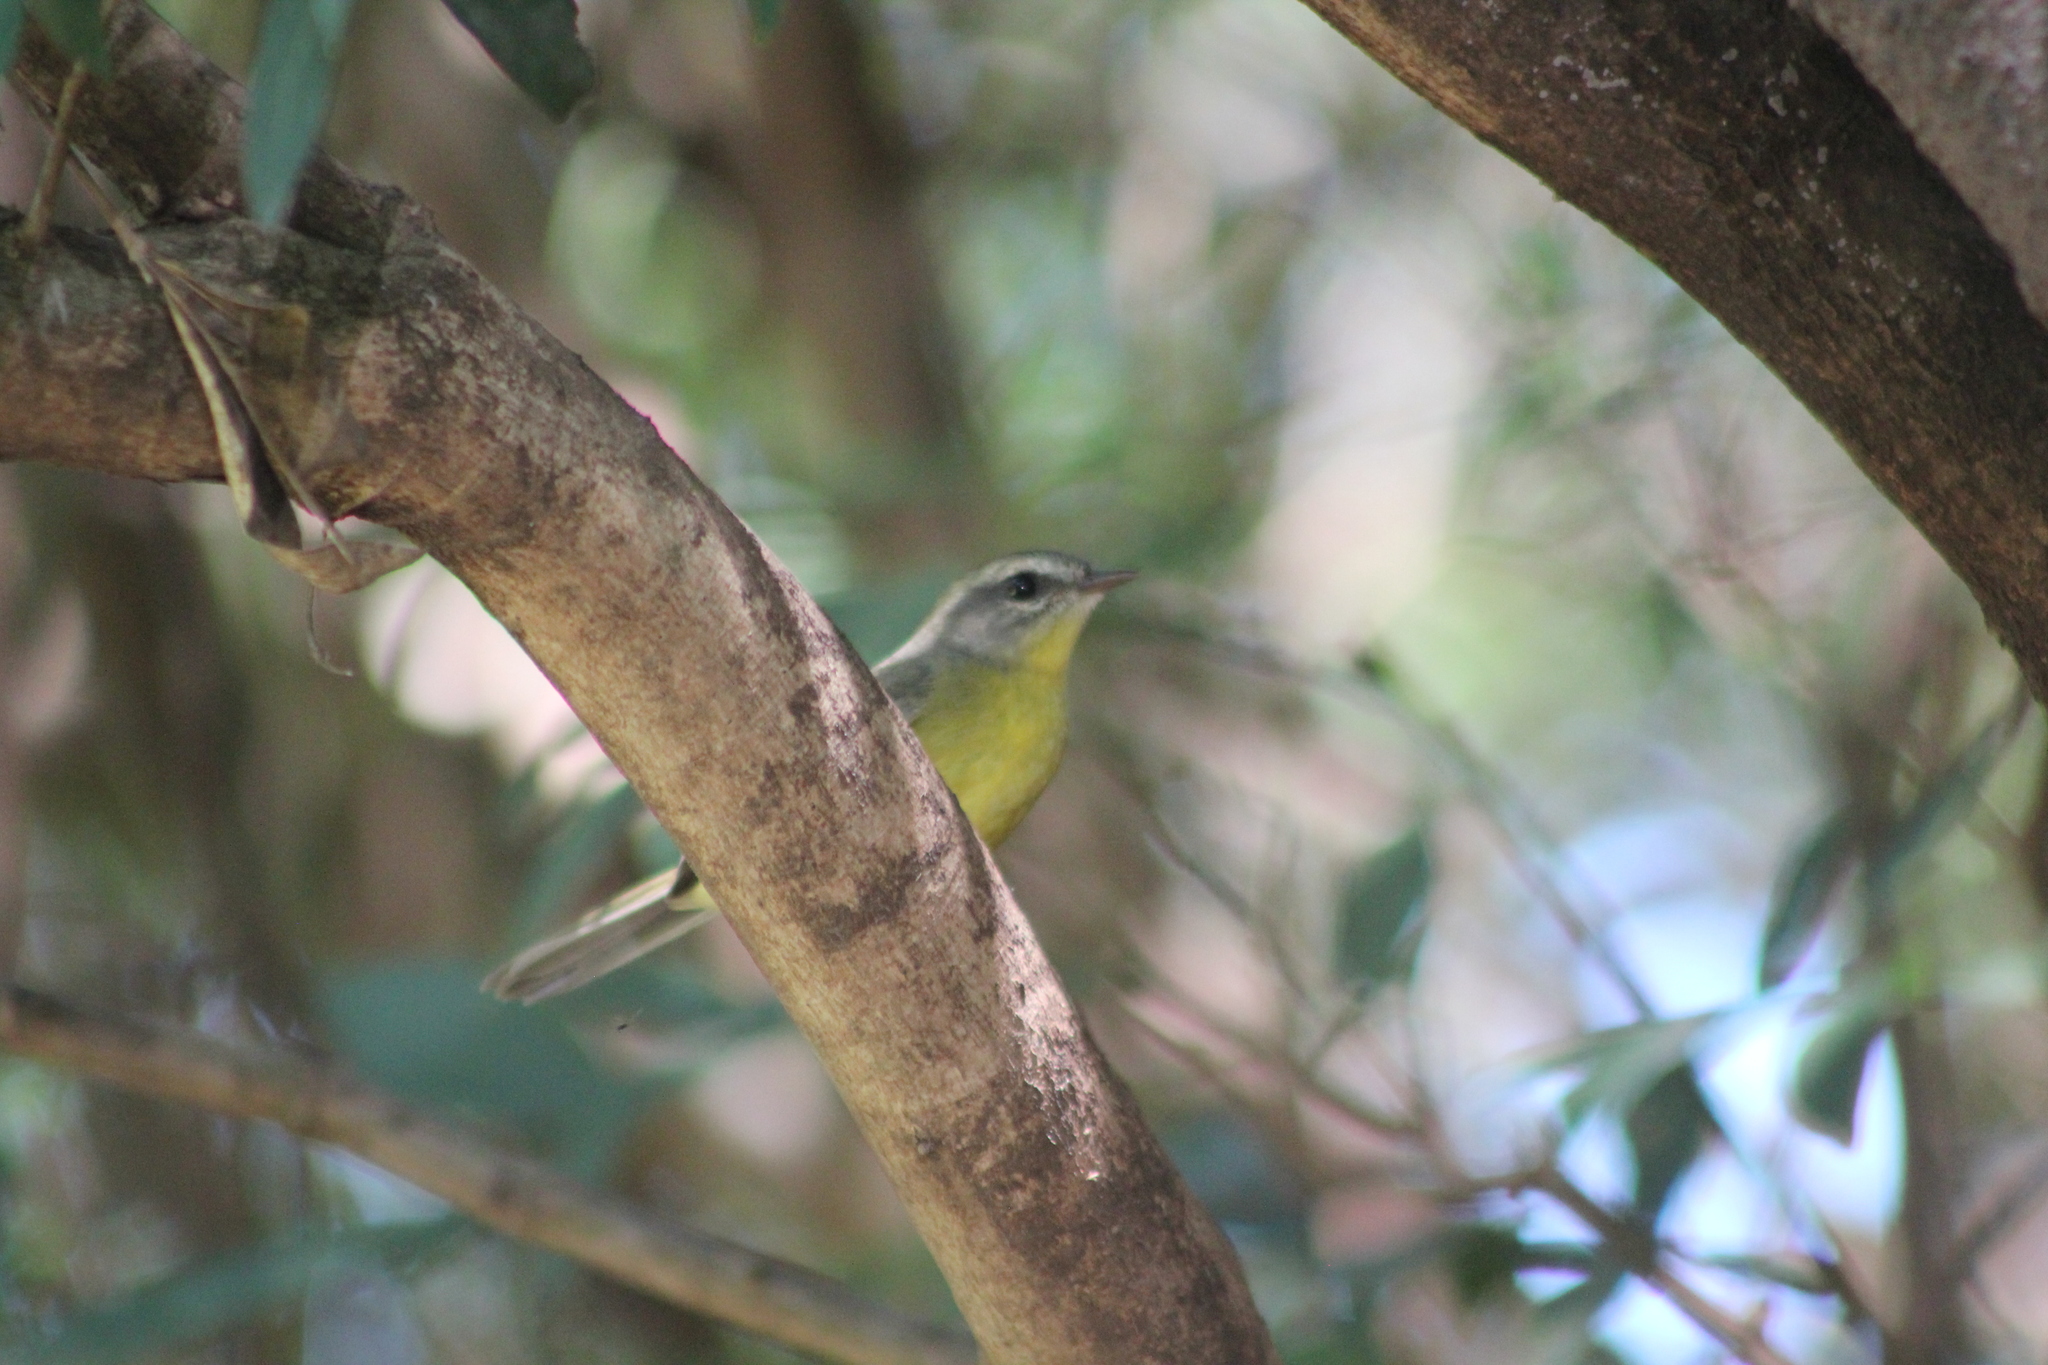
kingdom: Animalia
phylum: Chordata
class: Aves
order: Passeriformes
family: Parulidae
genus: Basileuterus
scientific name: Basileuterus culicivorus
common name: Golden-crowned warbler
